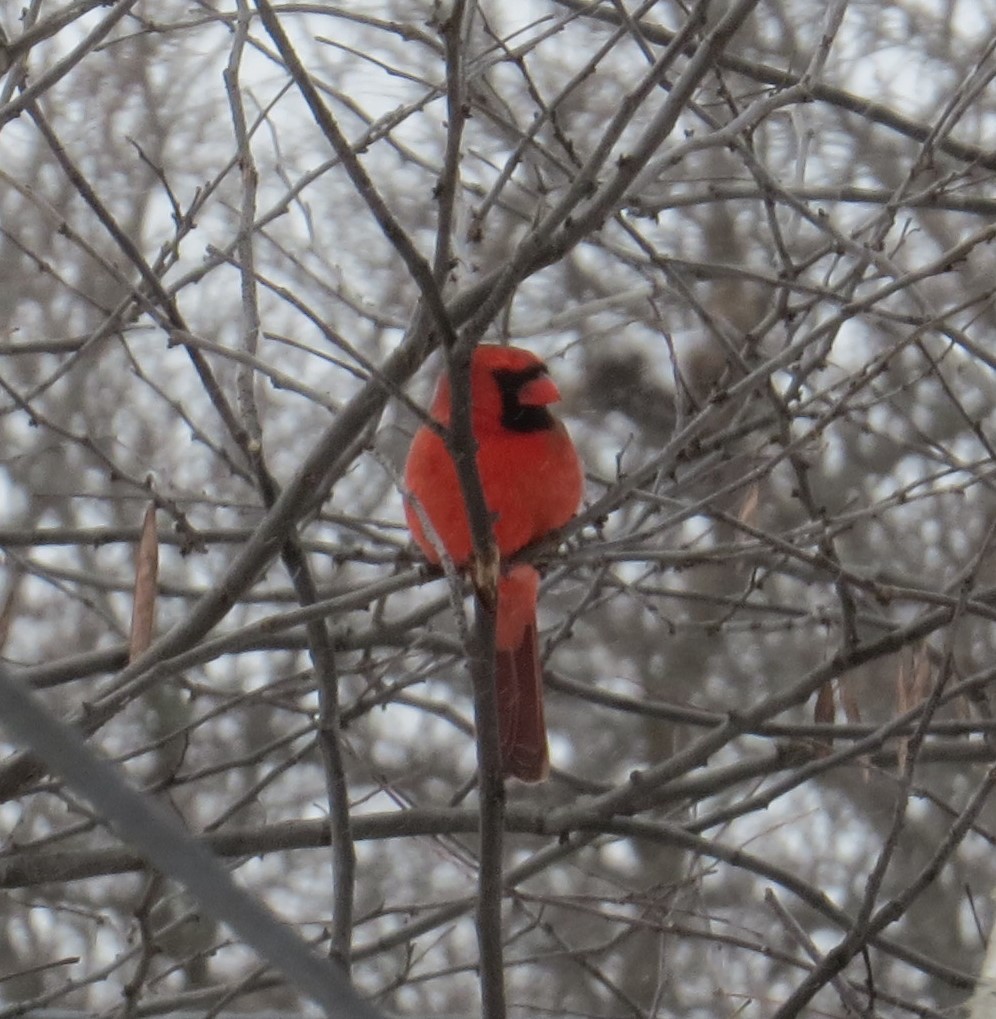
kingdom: Animalia
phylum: Chordata
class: Aves
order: Passeriformes
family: Cardinalidae
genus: Cardinalis
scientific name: Cardinalis cardinalis
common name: Northern cardinal
